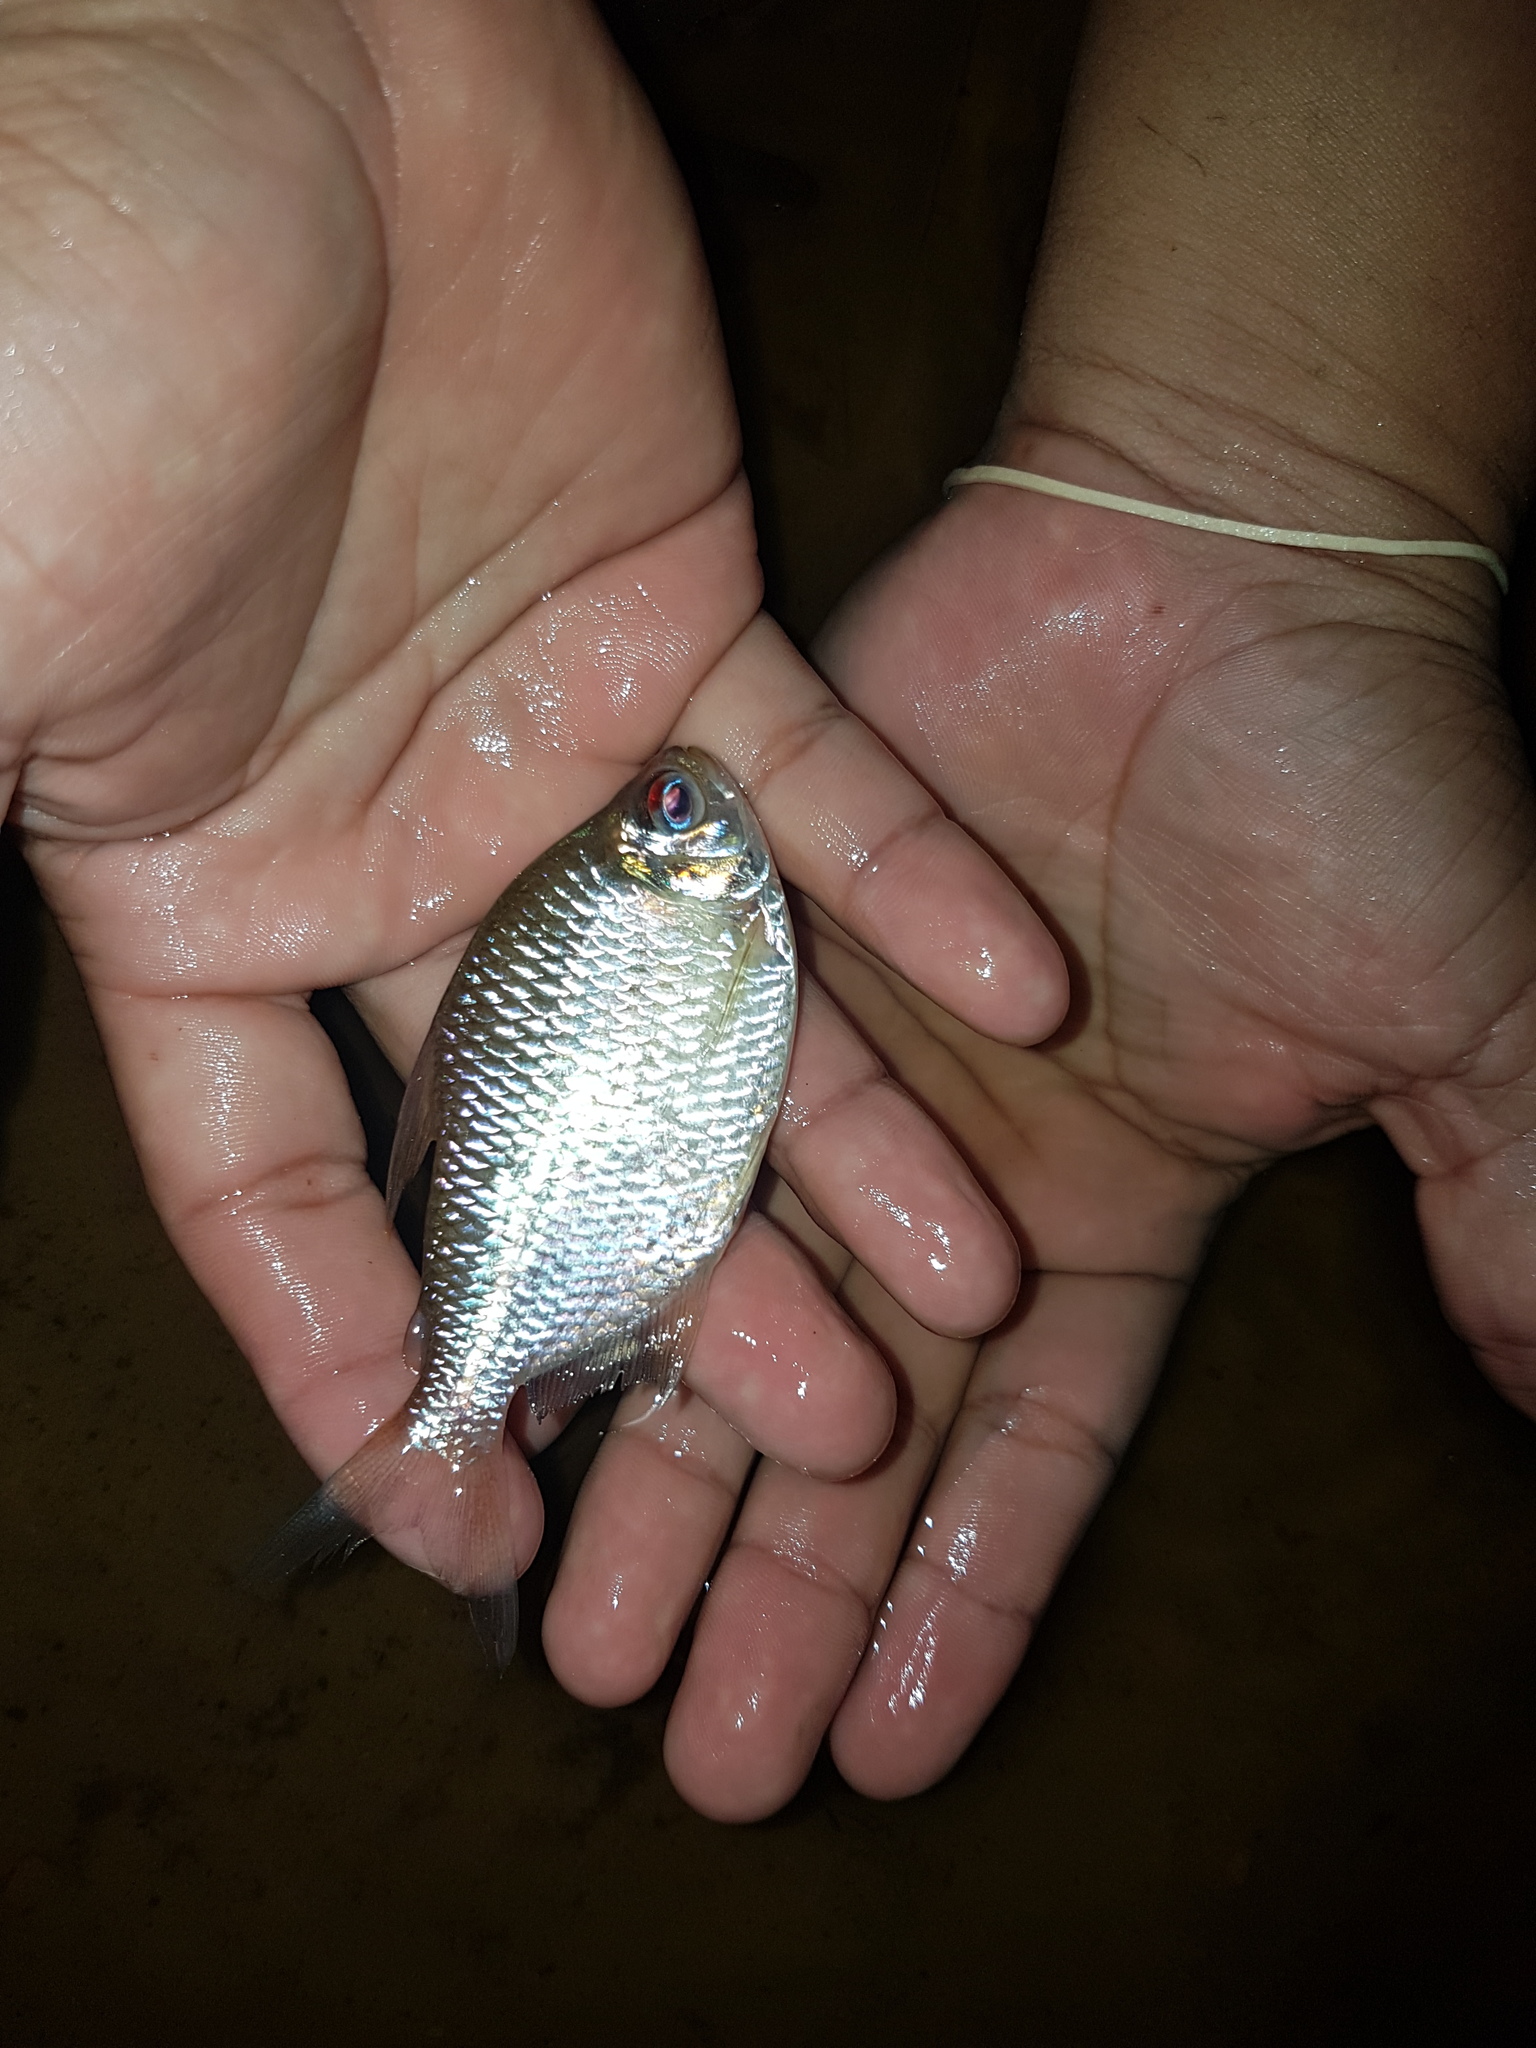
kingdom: Animalia
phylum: Chordata
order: Characiformes
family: Characidae
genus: Astyanax
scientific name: Astyanax bimaculatus
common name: Twospot astyanax
